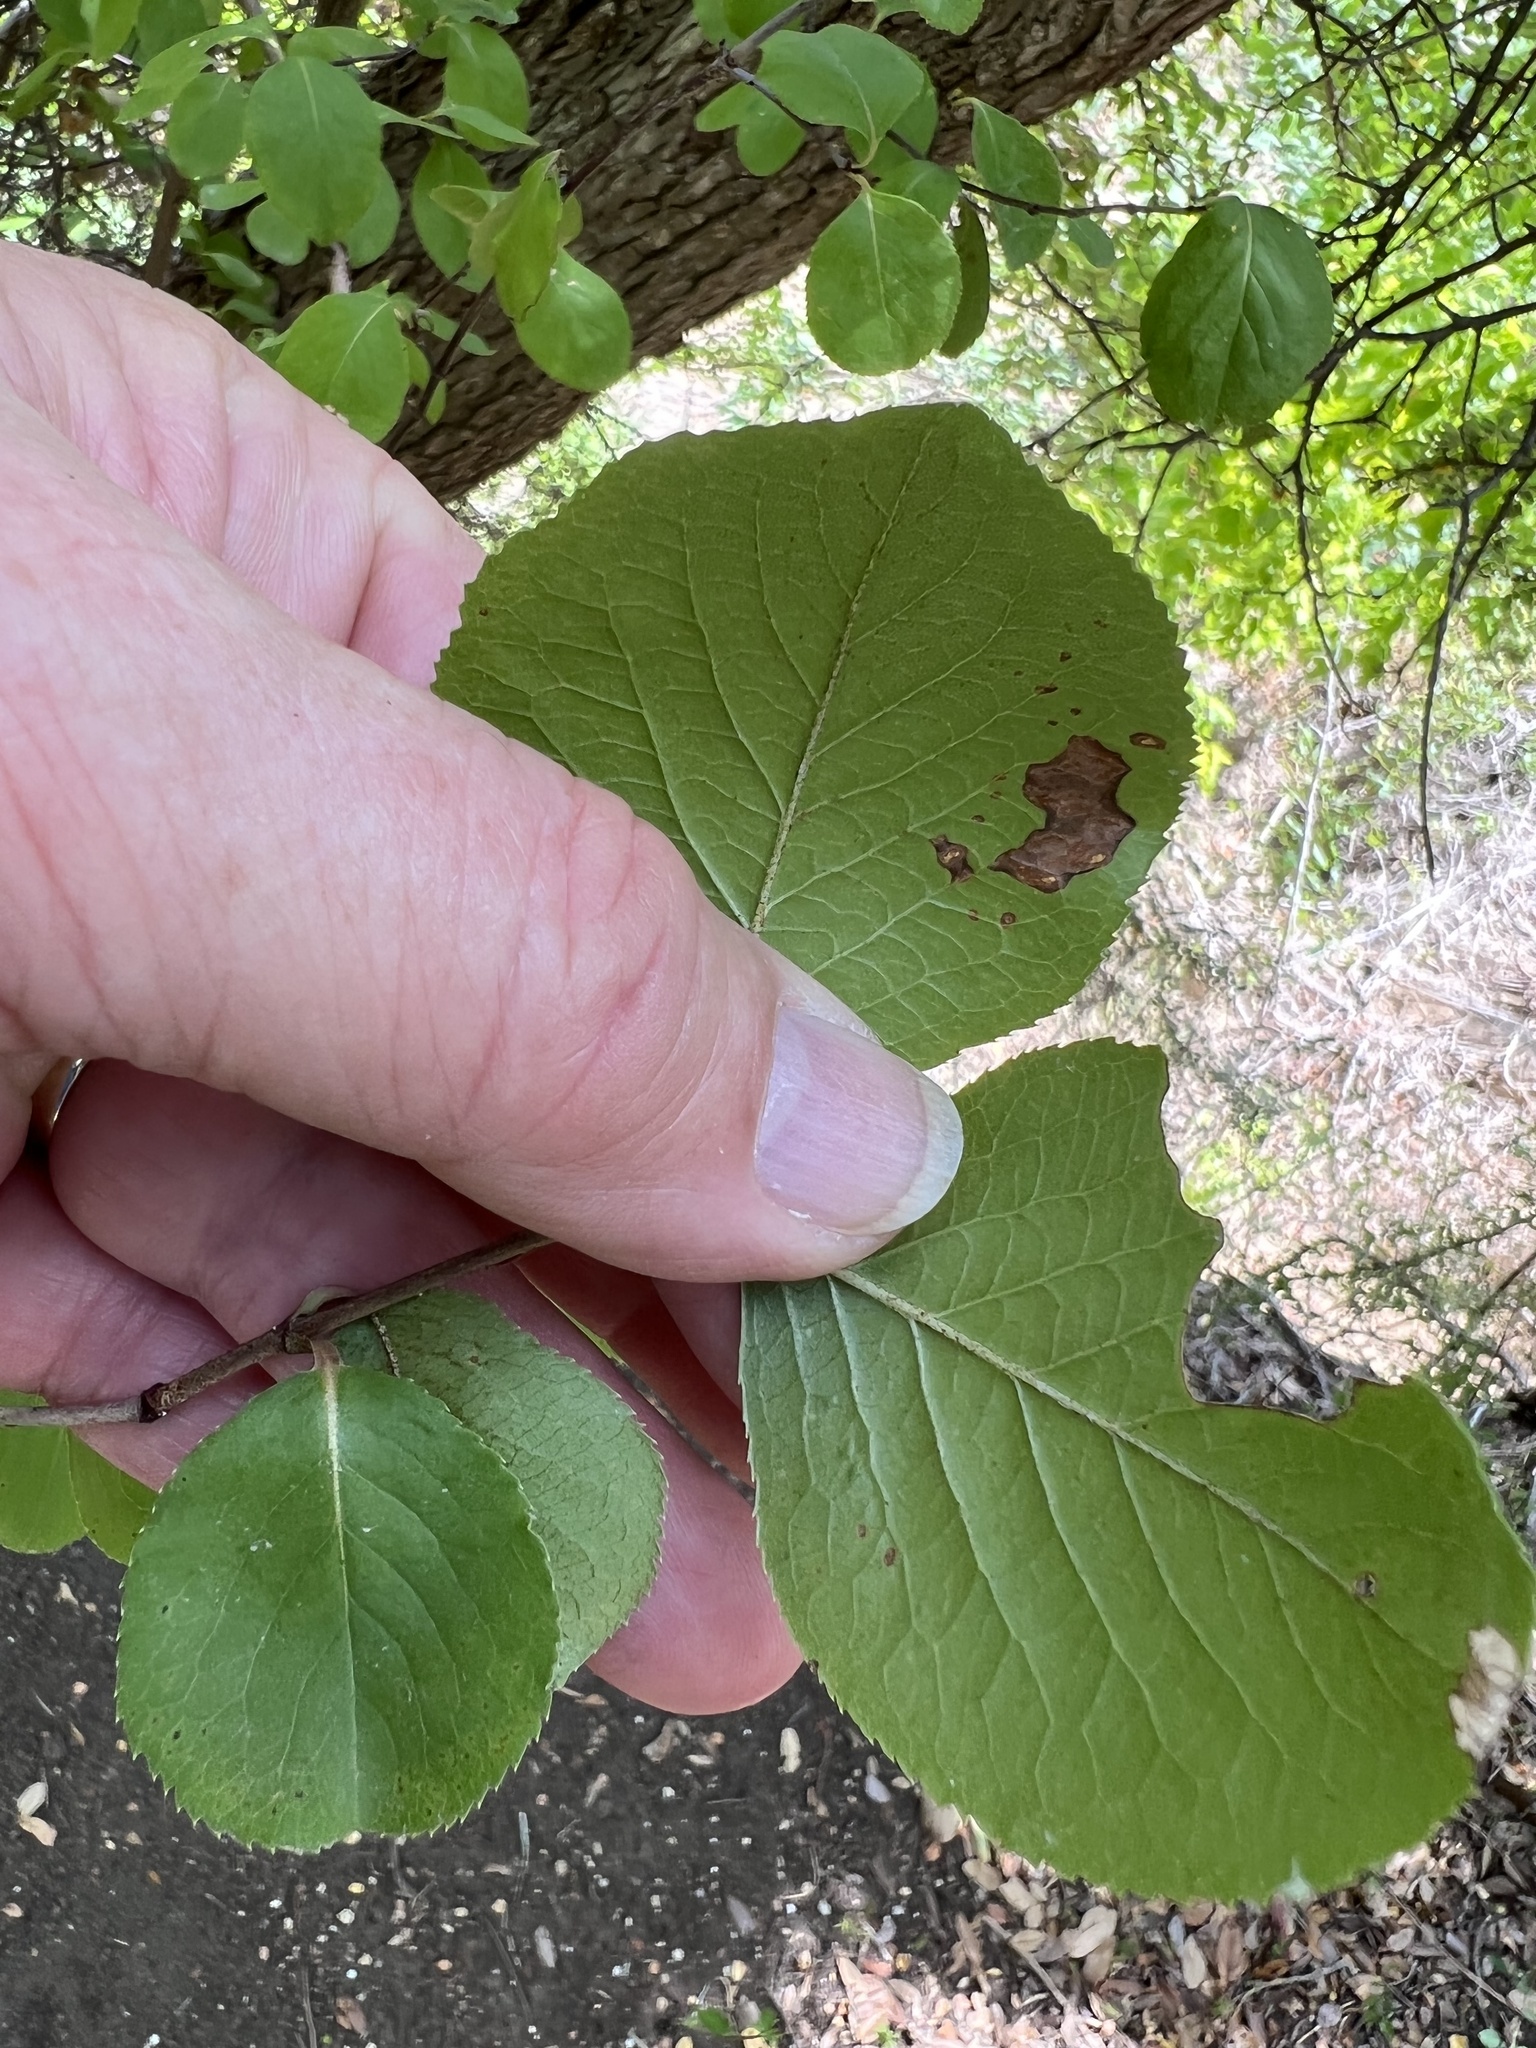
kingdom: Plantae
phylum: Tracheophyta
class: Magnoliopsida
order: Dipsacales
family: Viburnaceae
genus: Viburnum
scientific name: Viburnum rufidulum
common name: Blue haw
